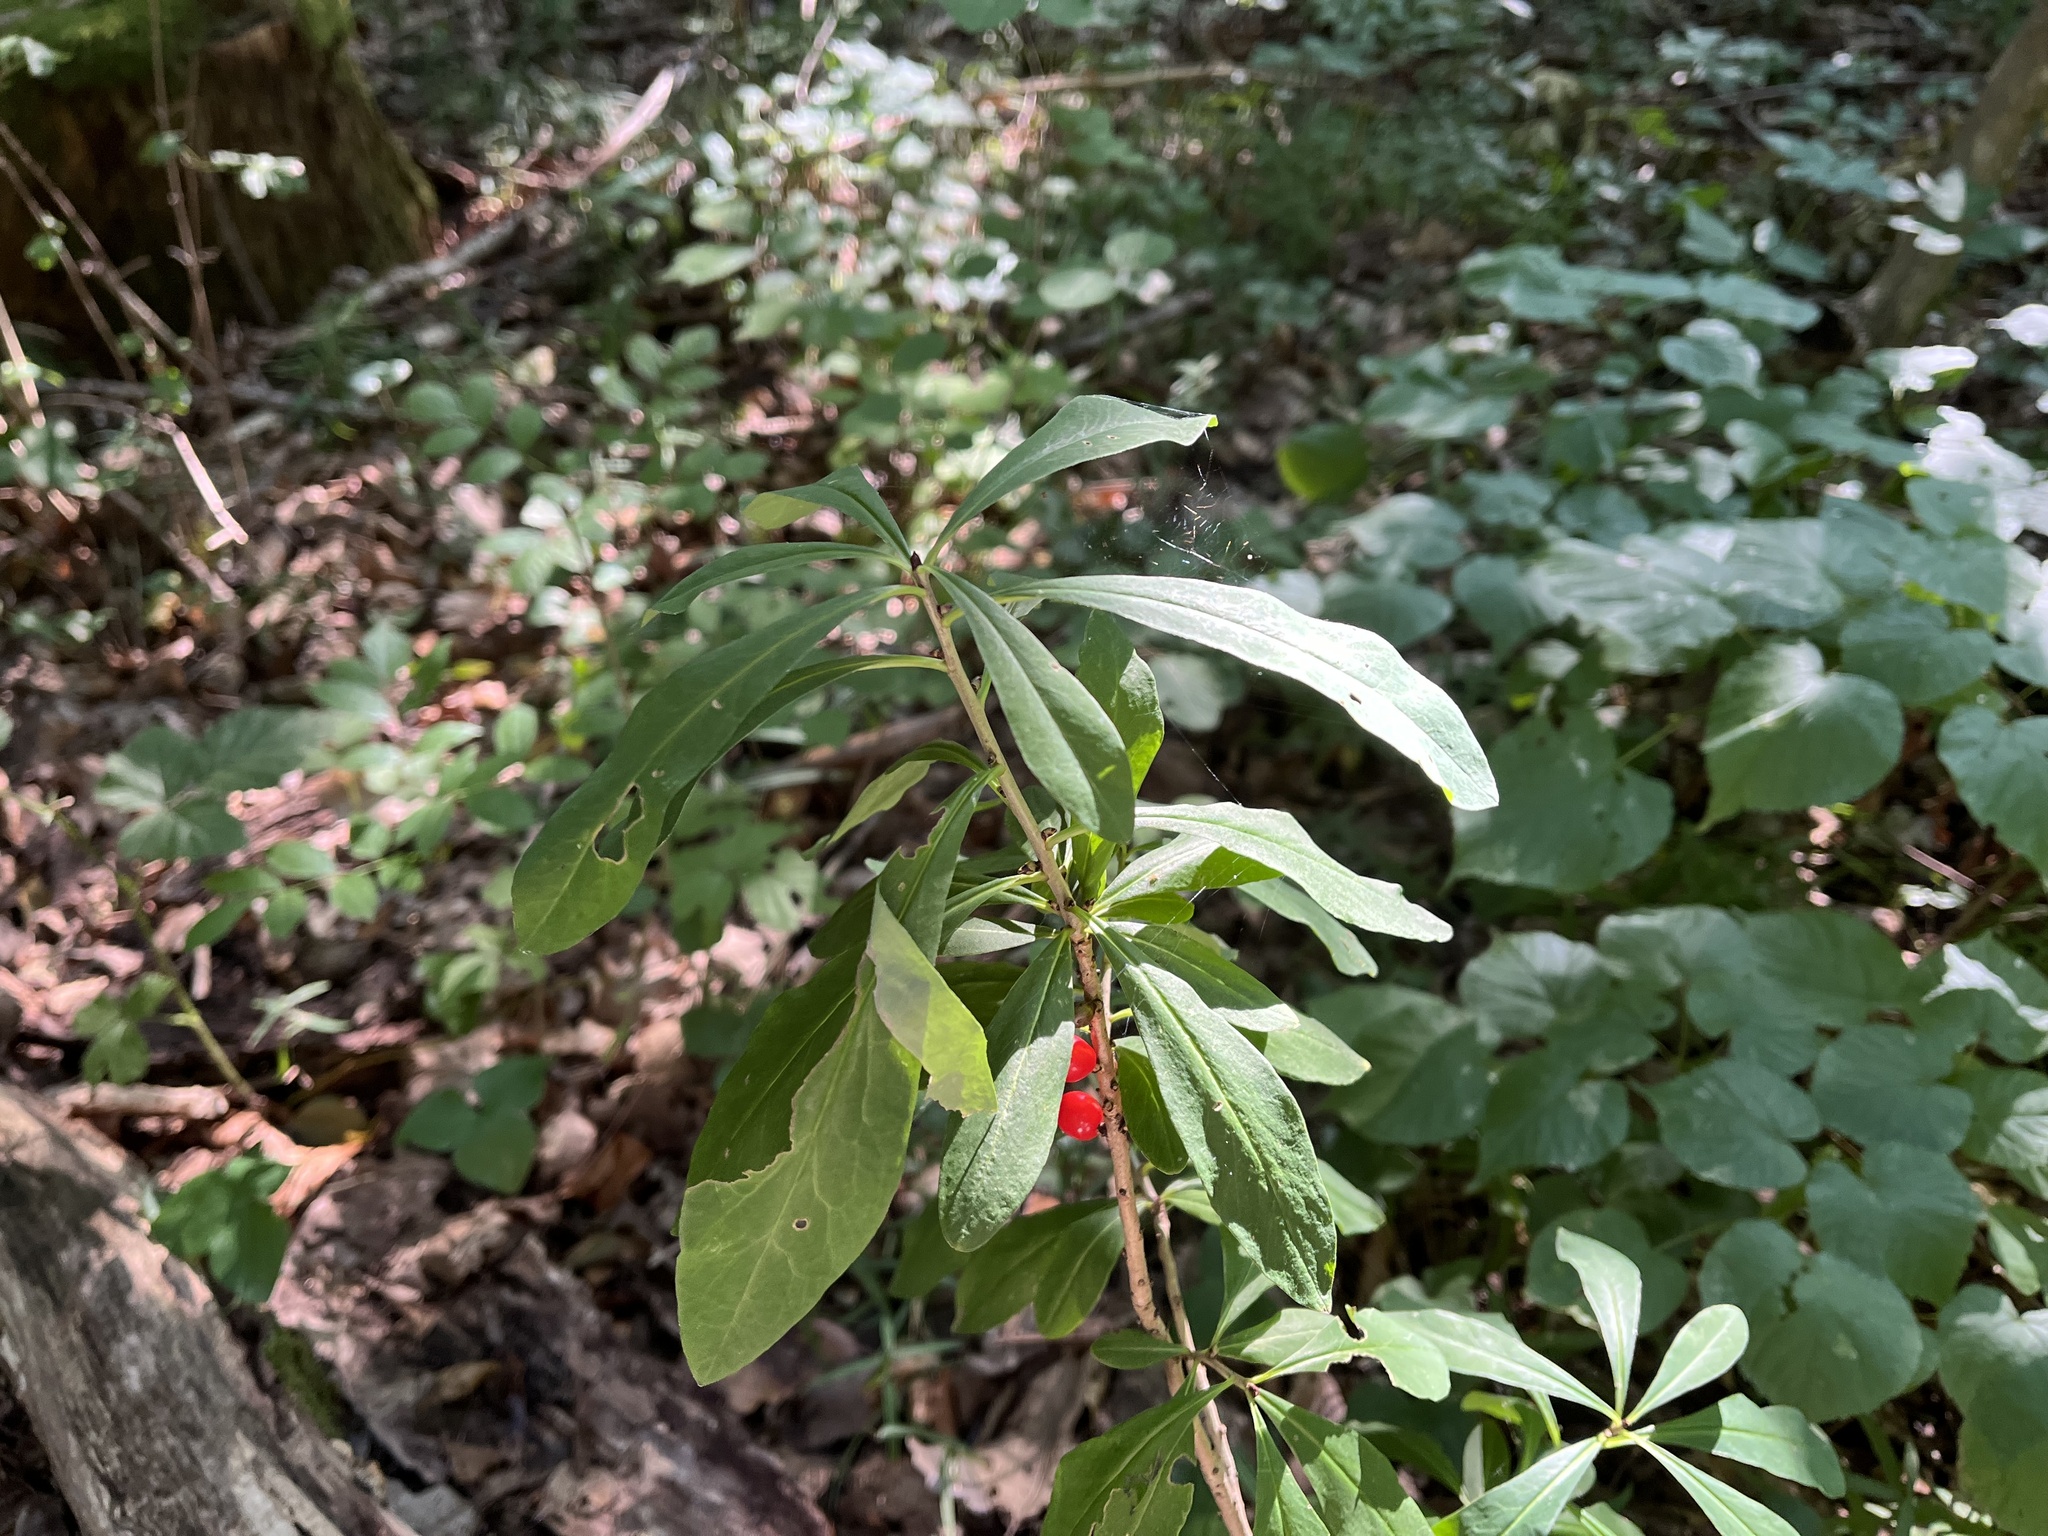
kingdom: Plantae
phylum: Tracheophyta
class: Magnoliopsida
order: Malvales
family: Thymelaeaceae
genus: Daphne
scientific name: Daphne mezereum
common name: Mezereon
